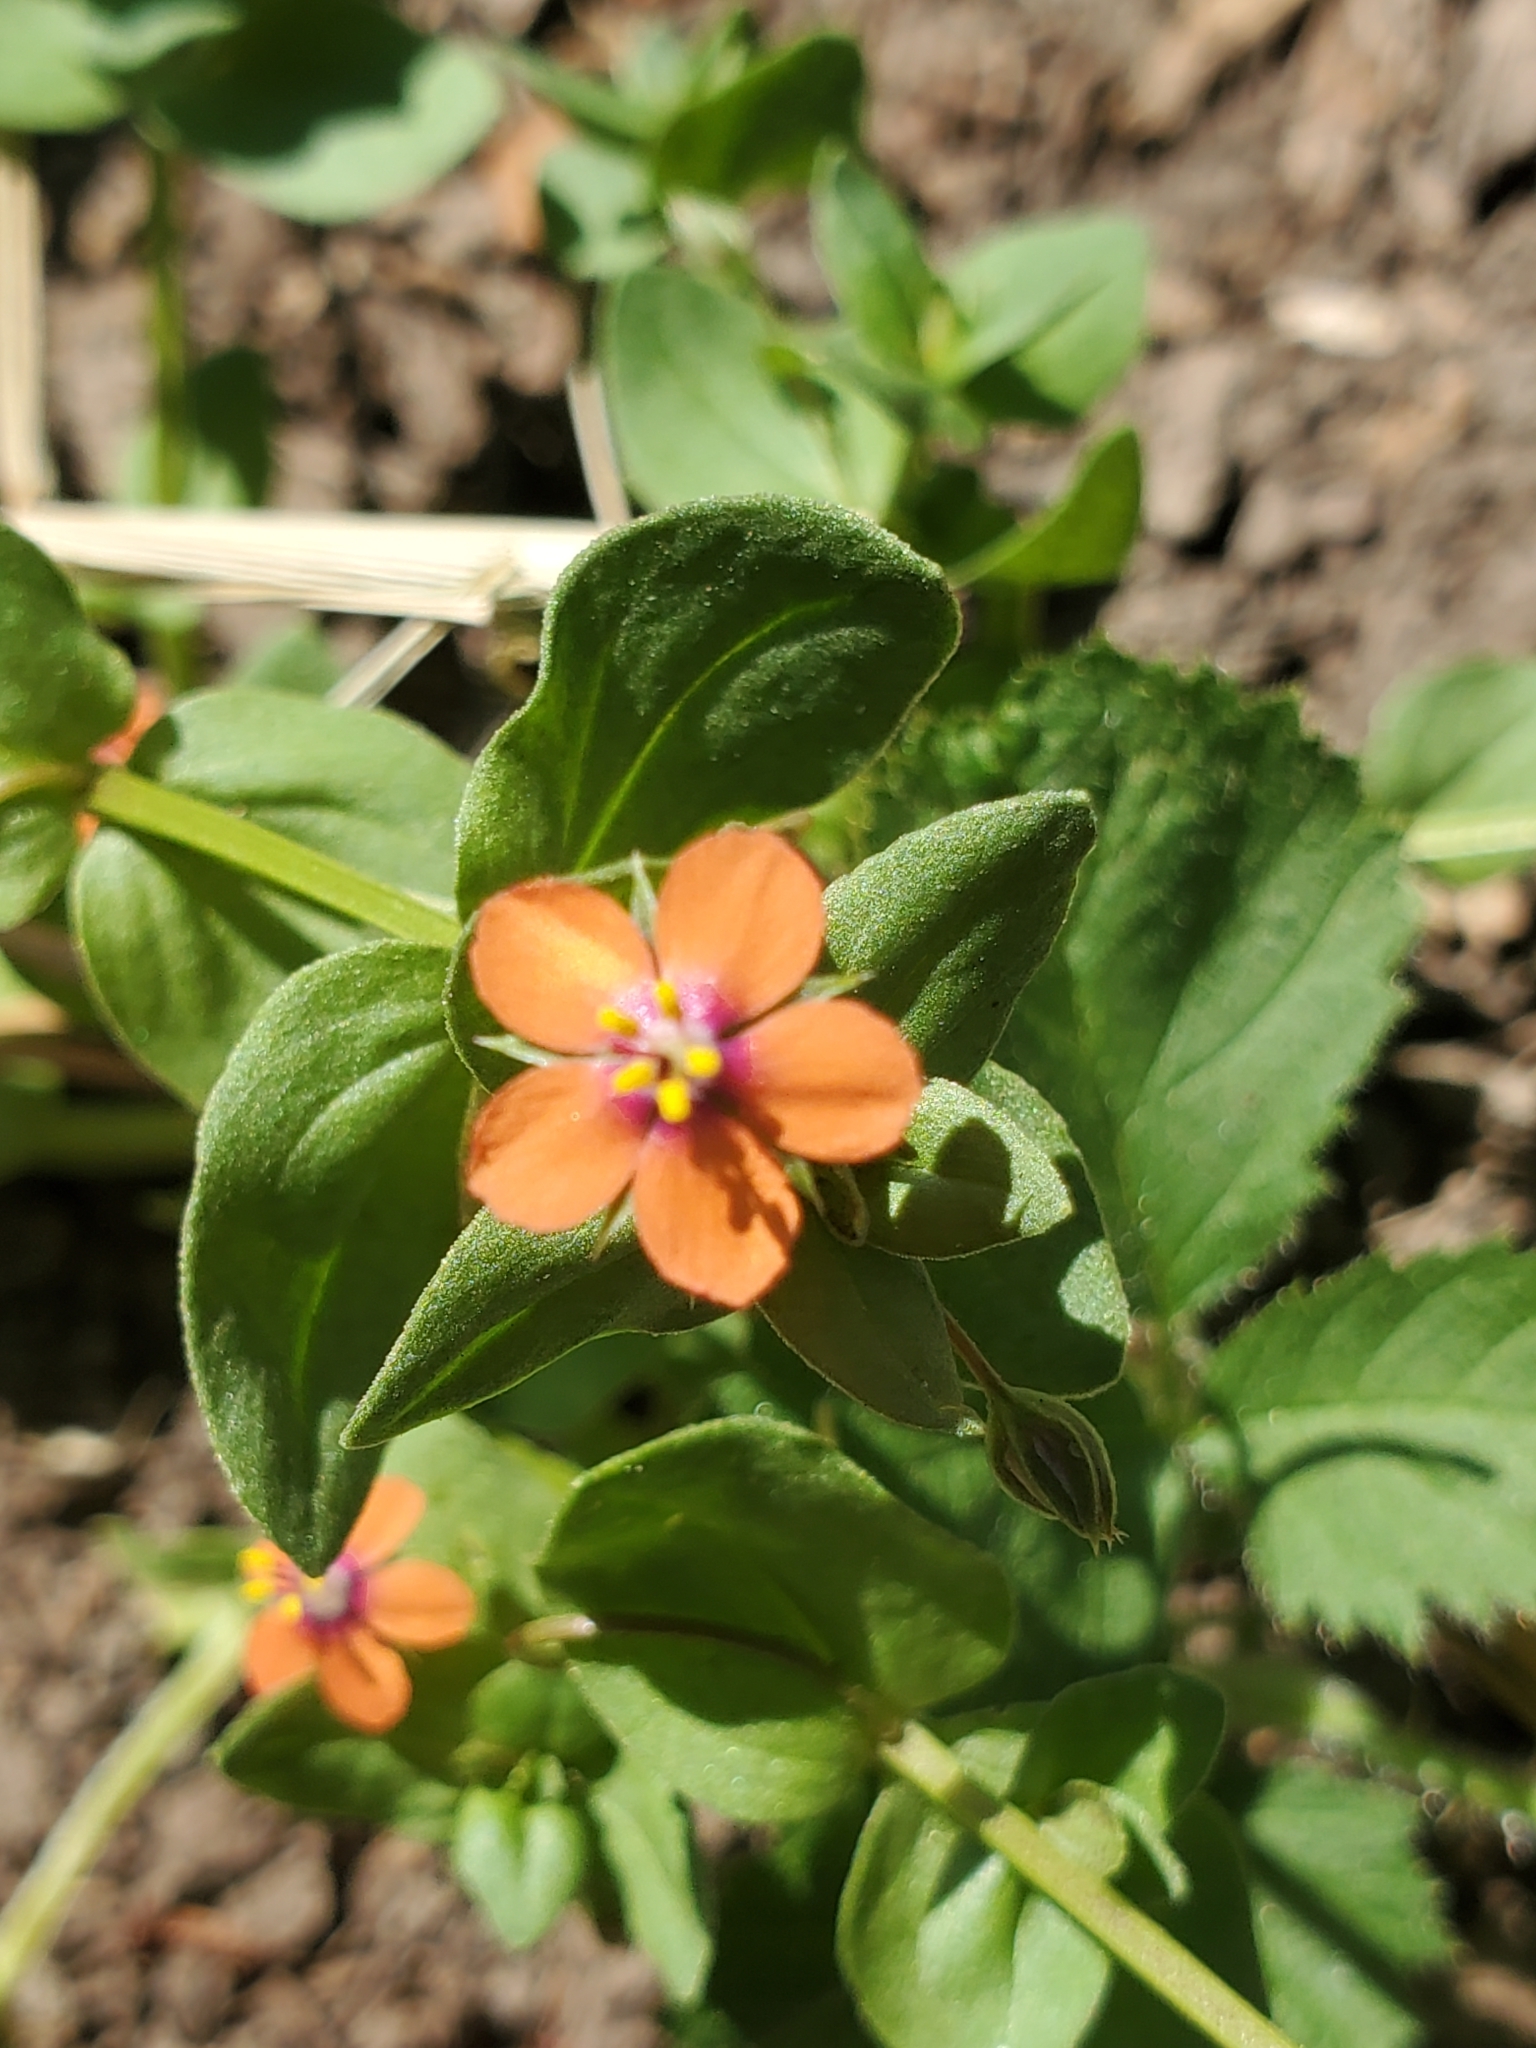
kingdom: Plantae
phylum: Tracheophyta
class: Magnoliopsida
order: Ericales
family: Primulaceae
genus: Lysimachia
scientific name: Lysimachia arvensis
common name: Scarlet pimpernel
